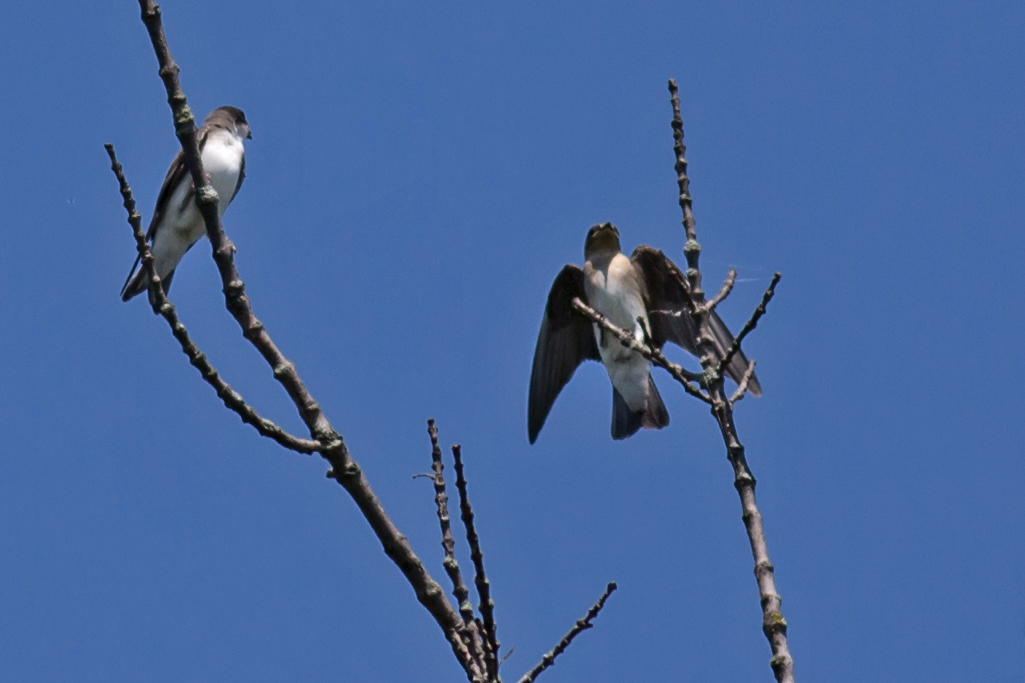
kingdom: Animalia
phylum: Chordata
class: Aves
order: Passeriformes
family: Hirundinidae
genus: Stelgidopteryx
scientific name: Stelgidopteryx serripennis
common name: Northern rough-winged swallow
